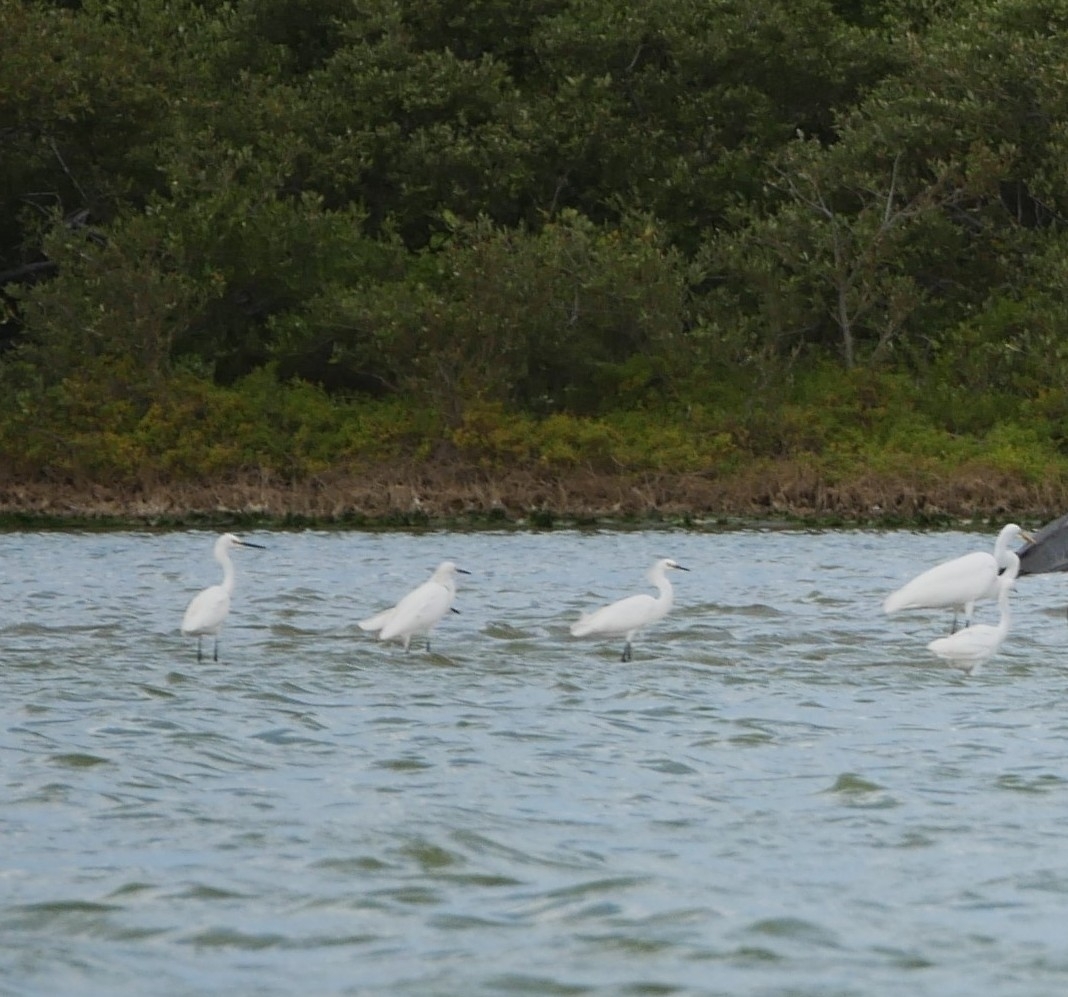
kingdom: Animalia
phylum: Chordata
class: Aves
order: Pelecaniformes
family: Ardeidae
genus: Egretta
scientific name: Egretta thula
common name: Snowy egret
